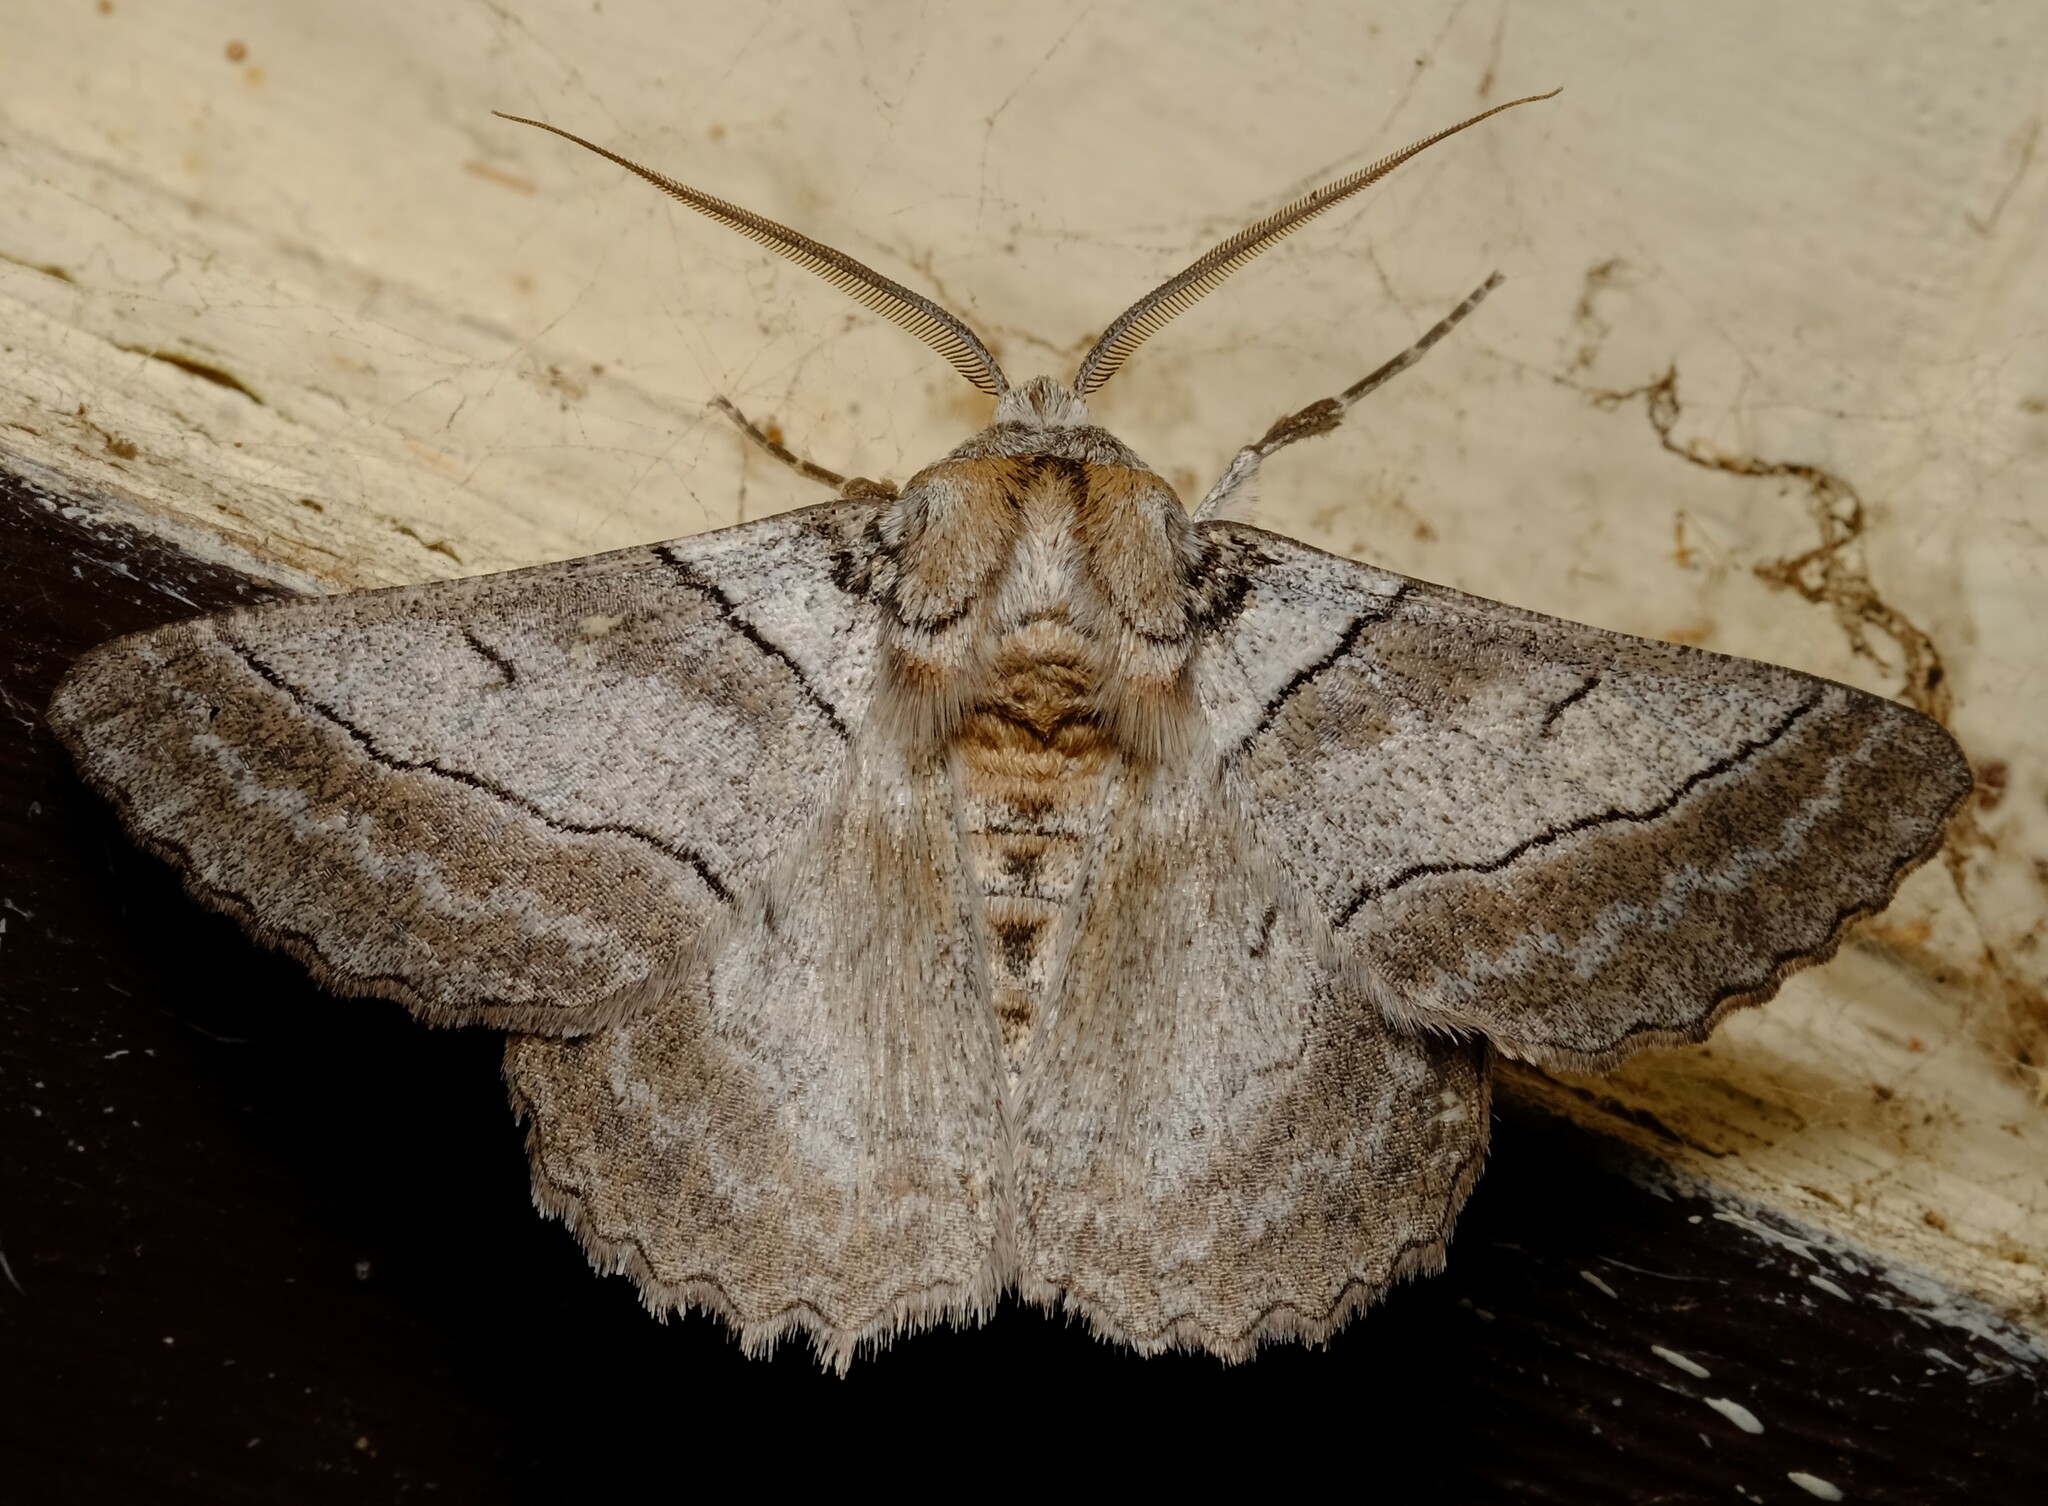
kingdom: Animalia
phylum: Arthropoda
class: Insecta
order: Lepidoptera
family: Geometridae
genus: Hypobapta
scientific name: Hypobapta tachyhalotaria
